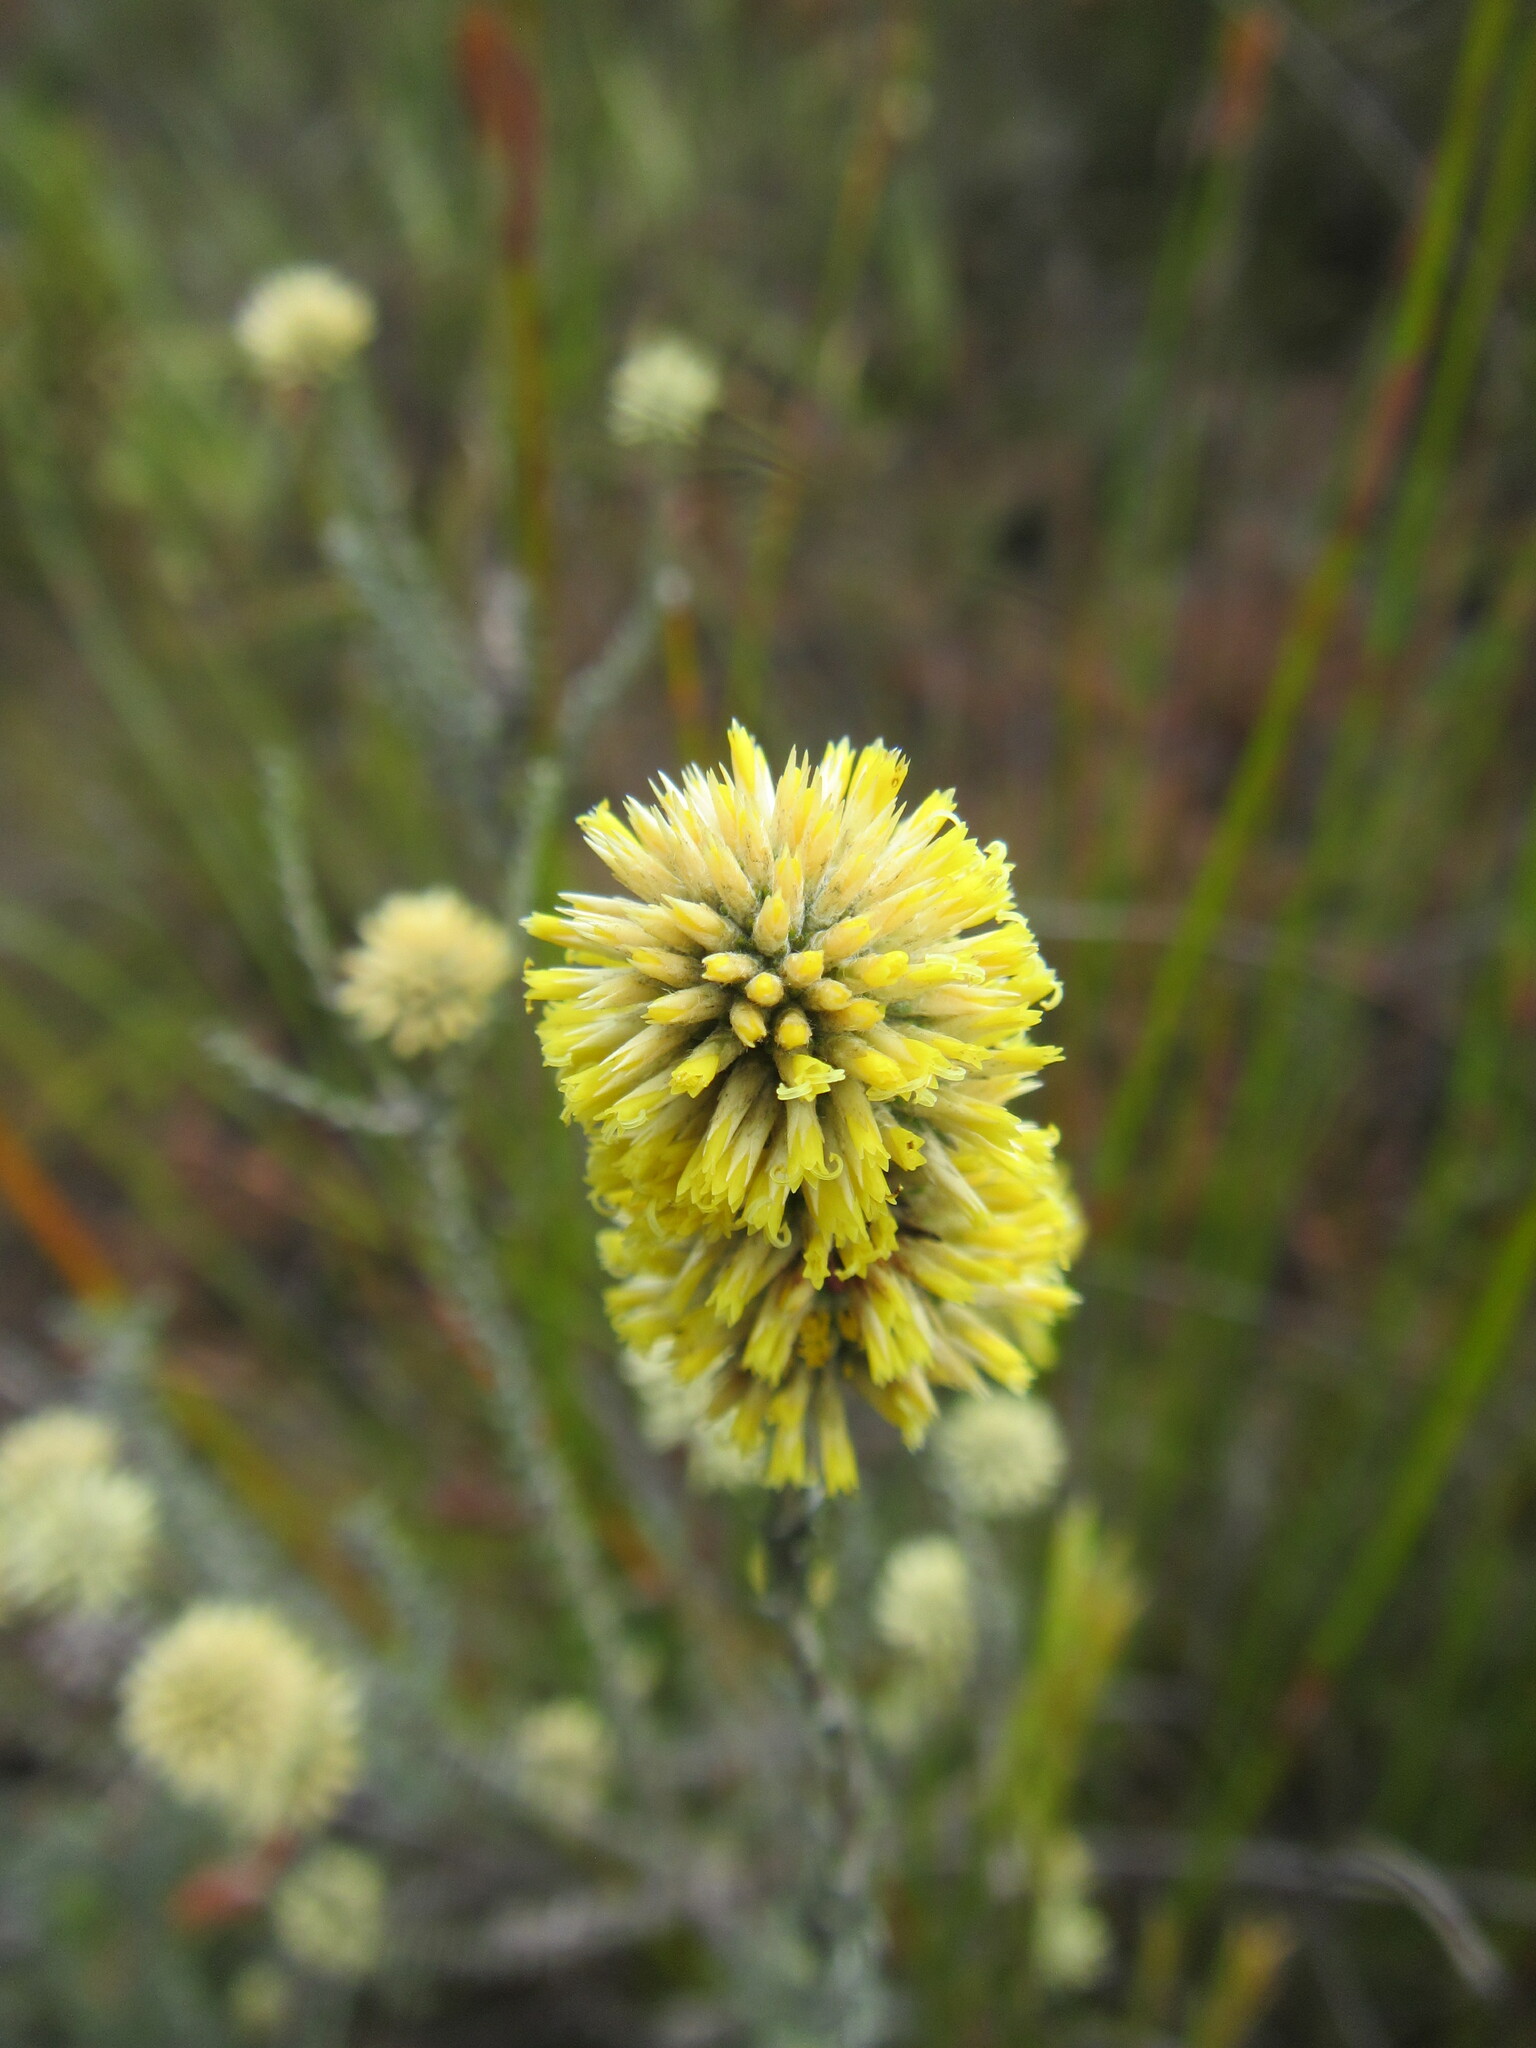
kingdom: Plantae
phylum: Tracheophyta
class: Magnoliopsida
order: Asterales
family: Asteraceae
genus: Seriphium
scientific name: Seriphium spirale
